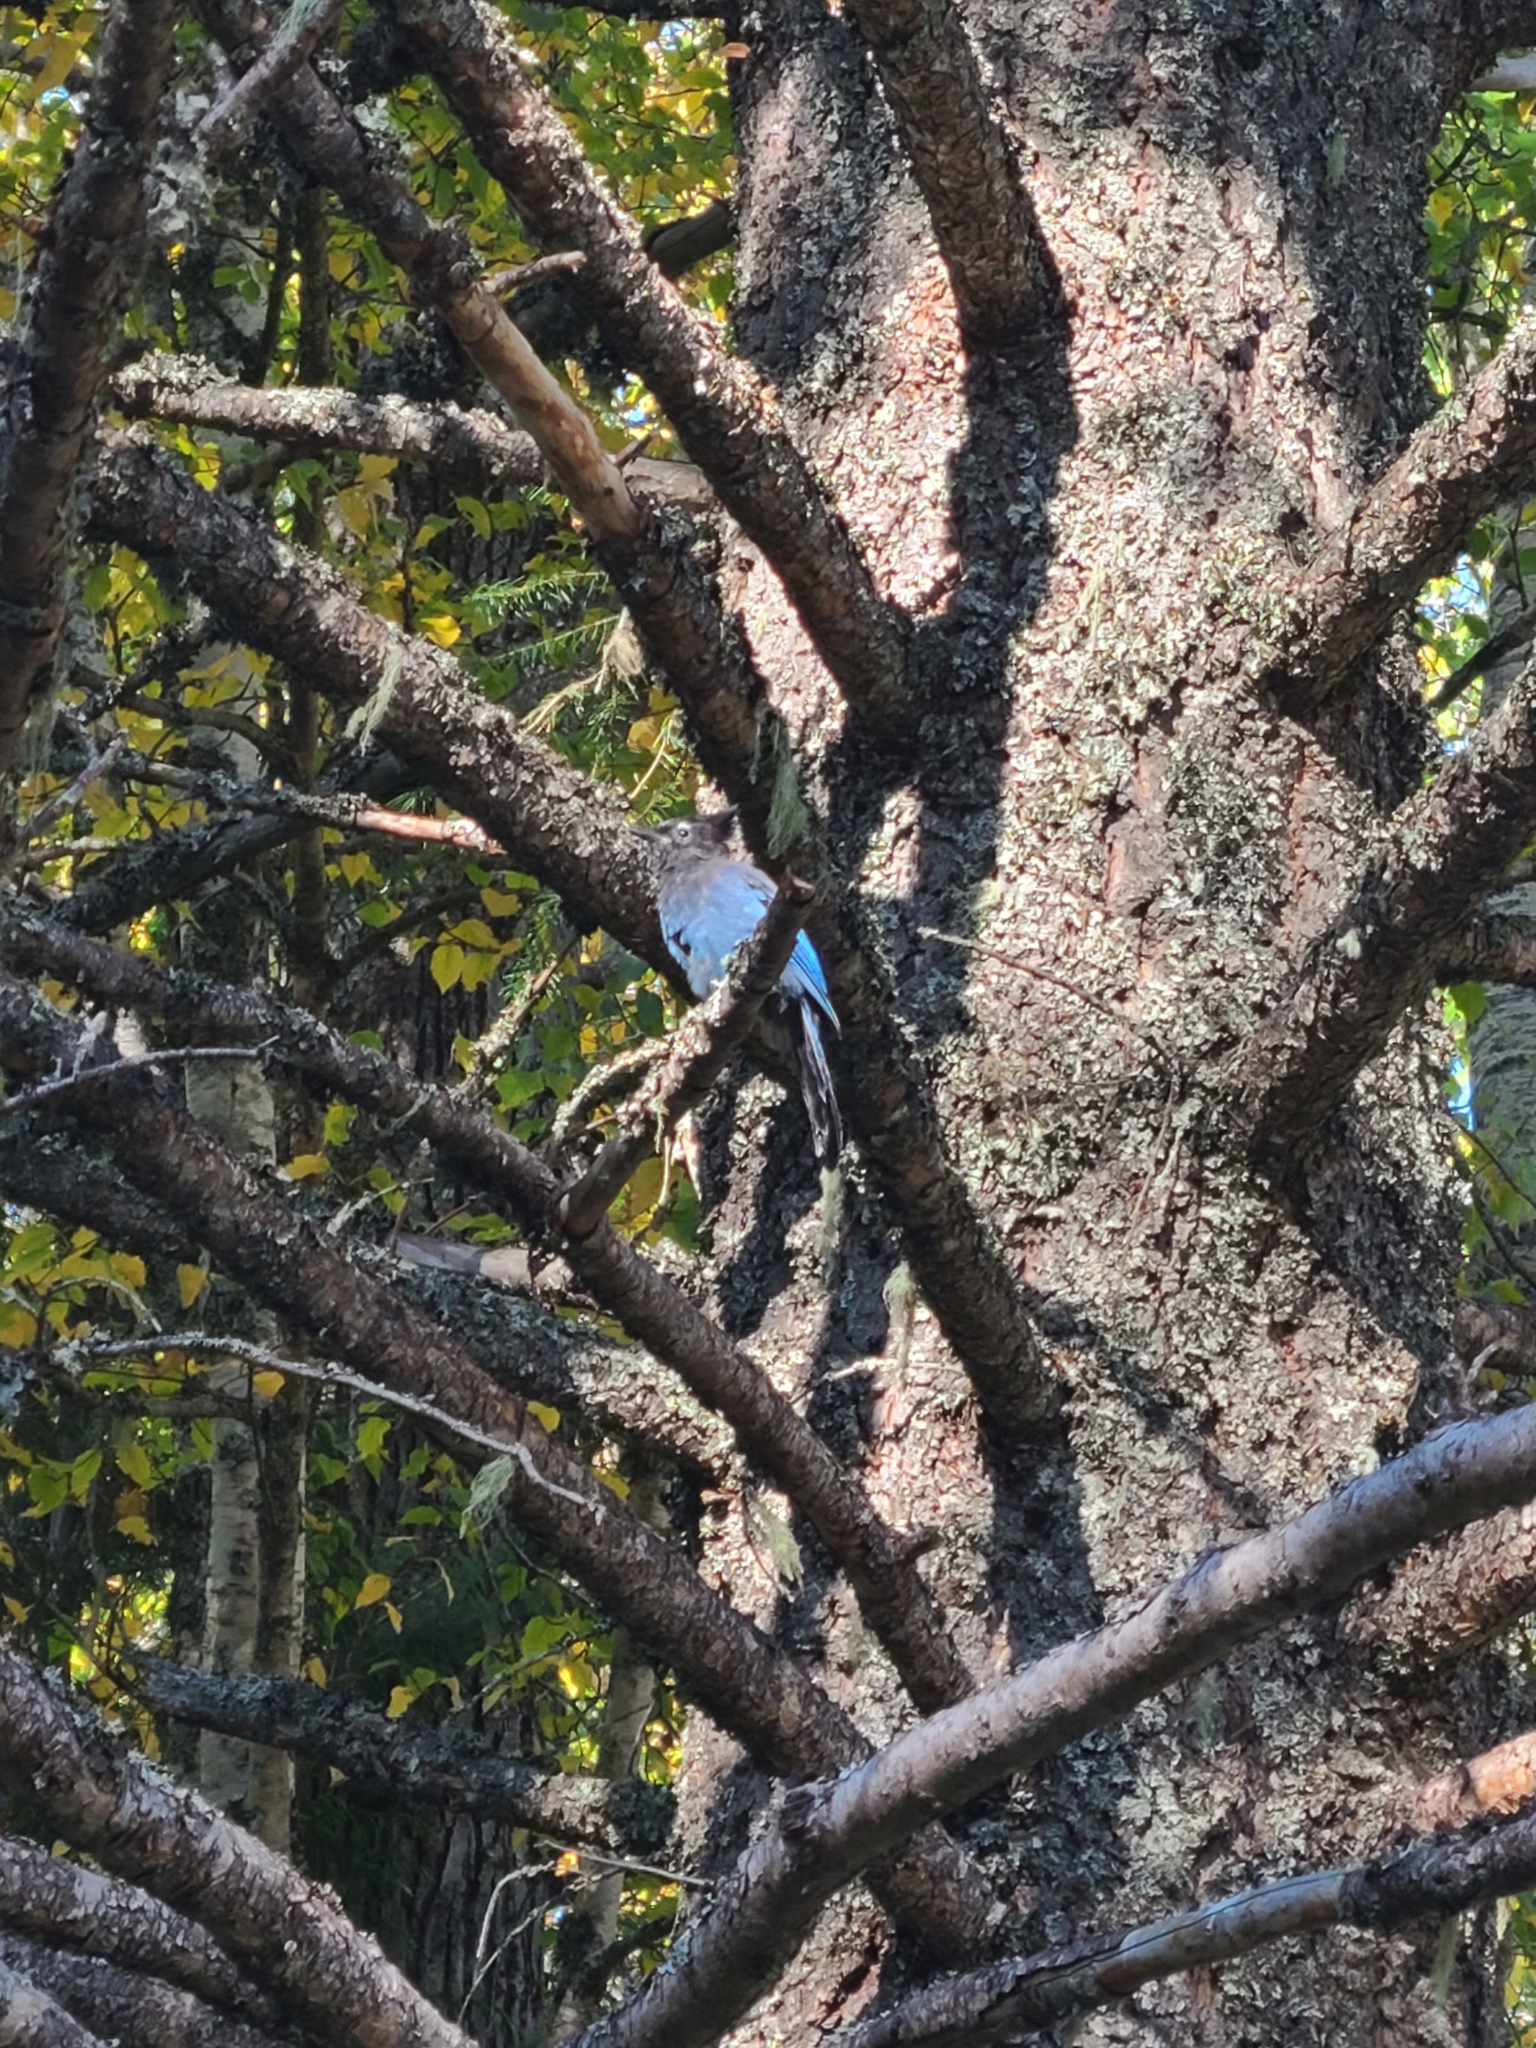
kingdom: Animalia
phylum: Chordata
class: Aves
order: Passeriformes
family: Corvidae
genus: Cyanocitta
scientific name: Cyanocitta stelleri
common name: Steller's jay
